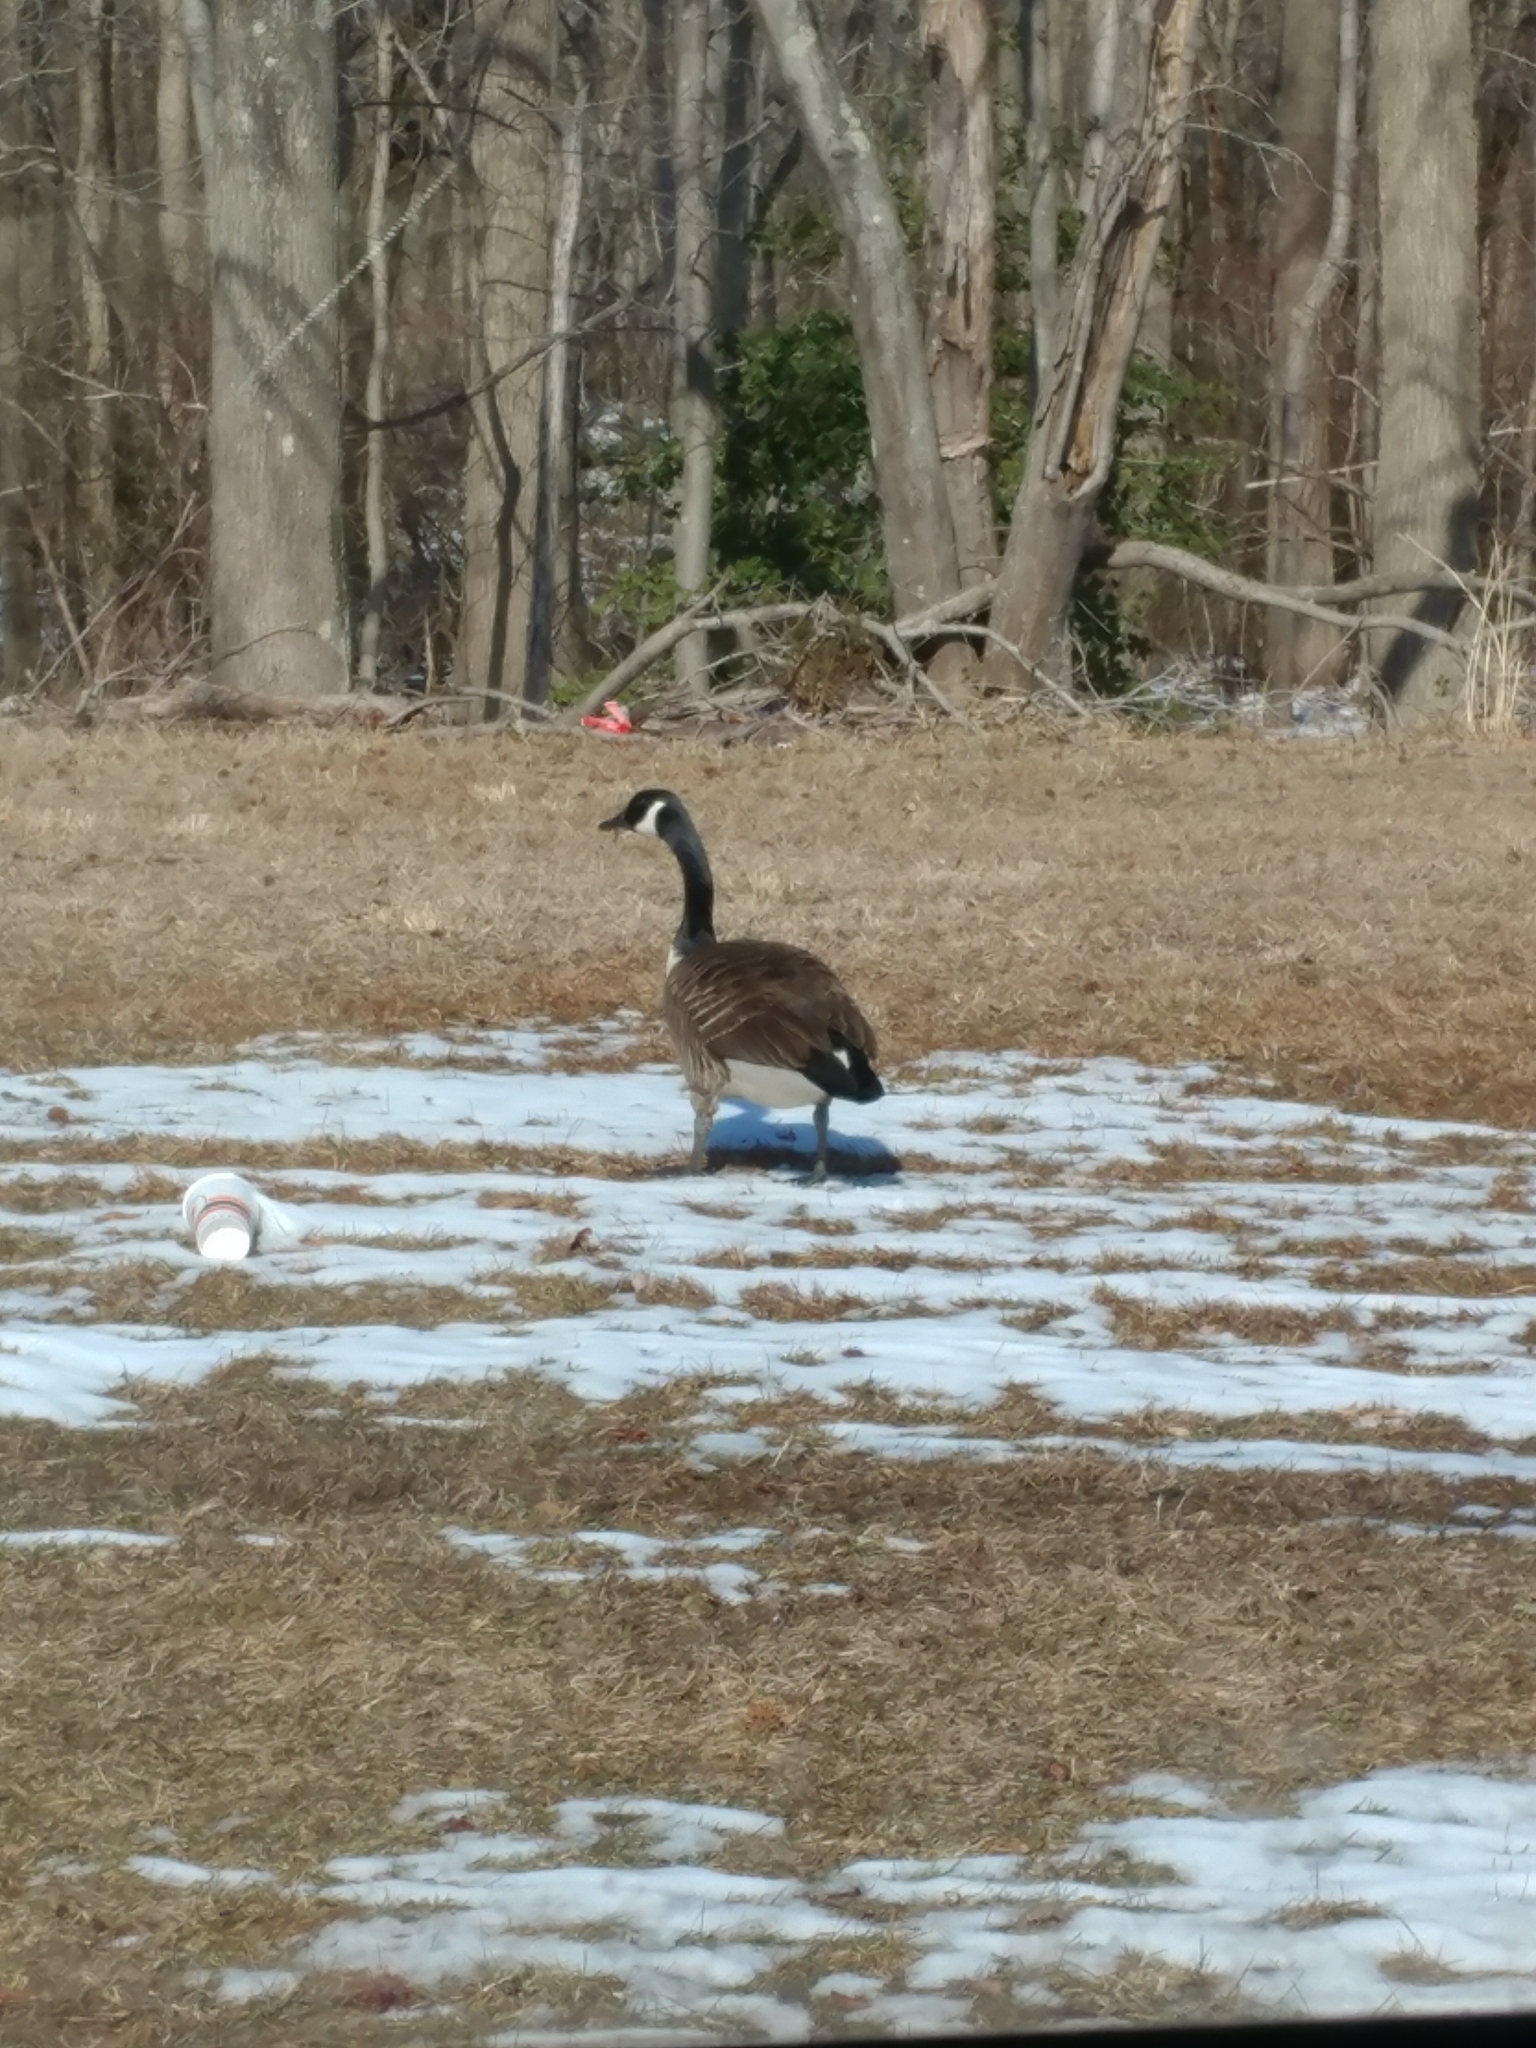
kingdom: Animalia
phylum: Chordata
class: Aves
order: Anseriformes
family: Anatidae
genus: Branta
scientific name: Branta canadensis
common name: Canada goose
